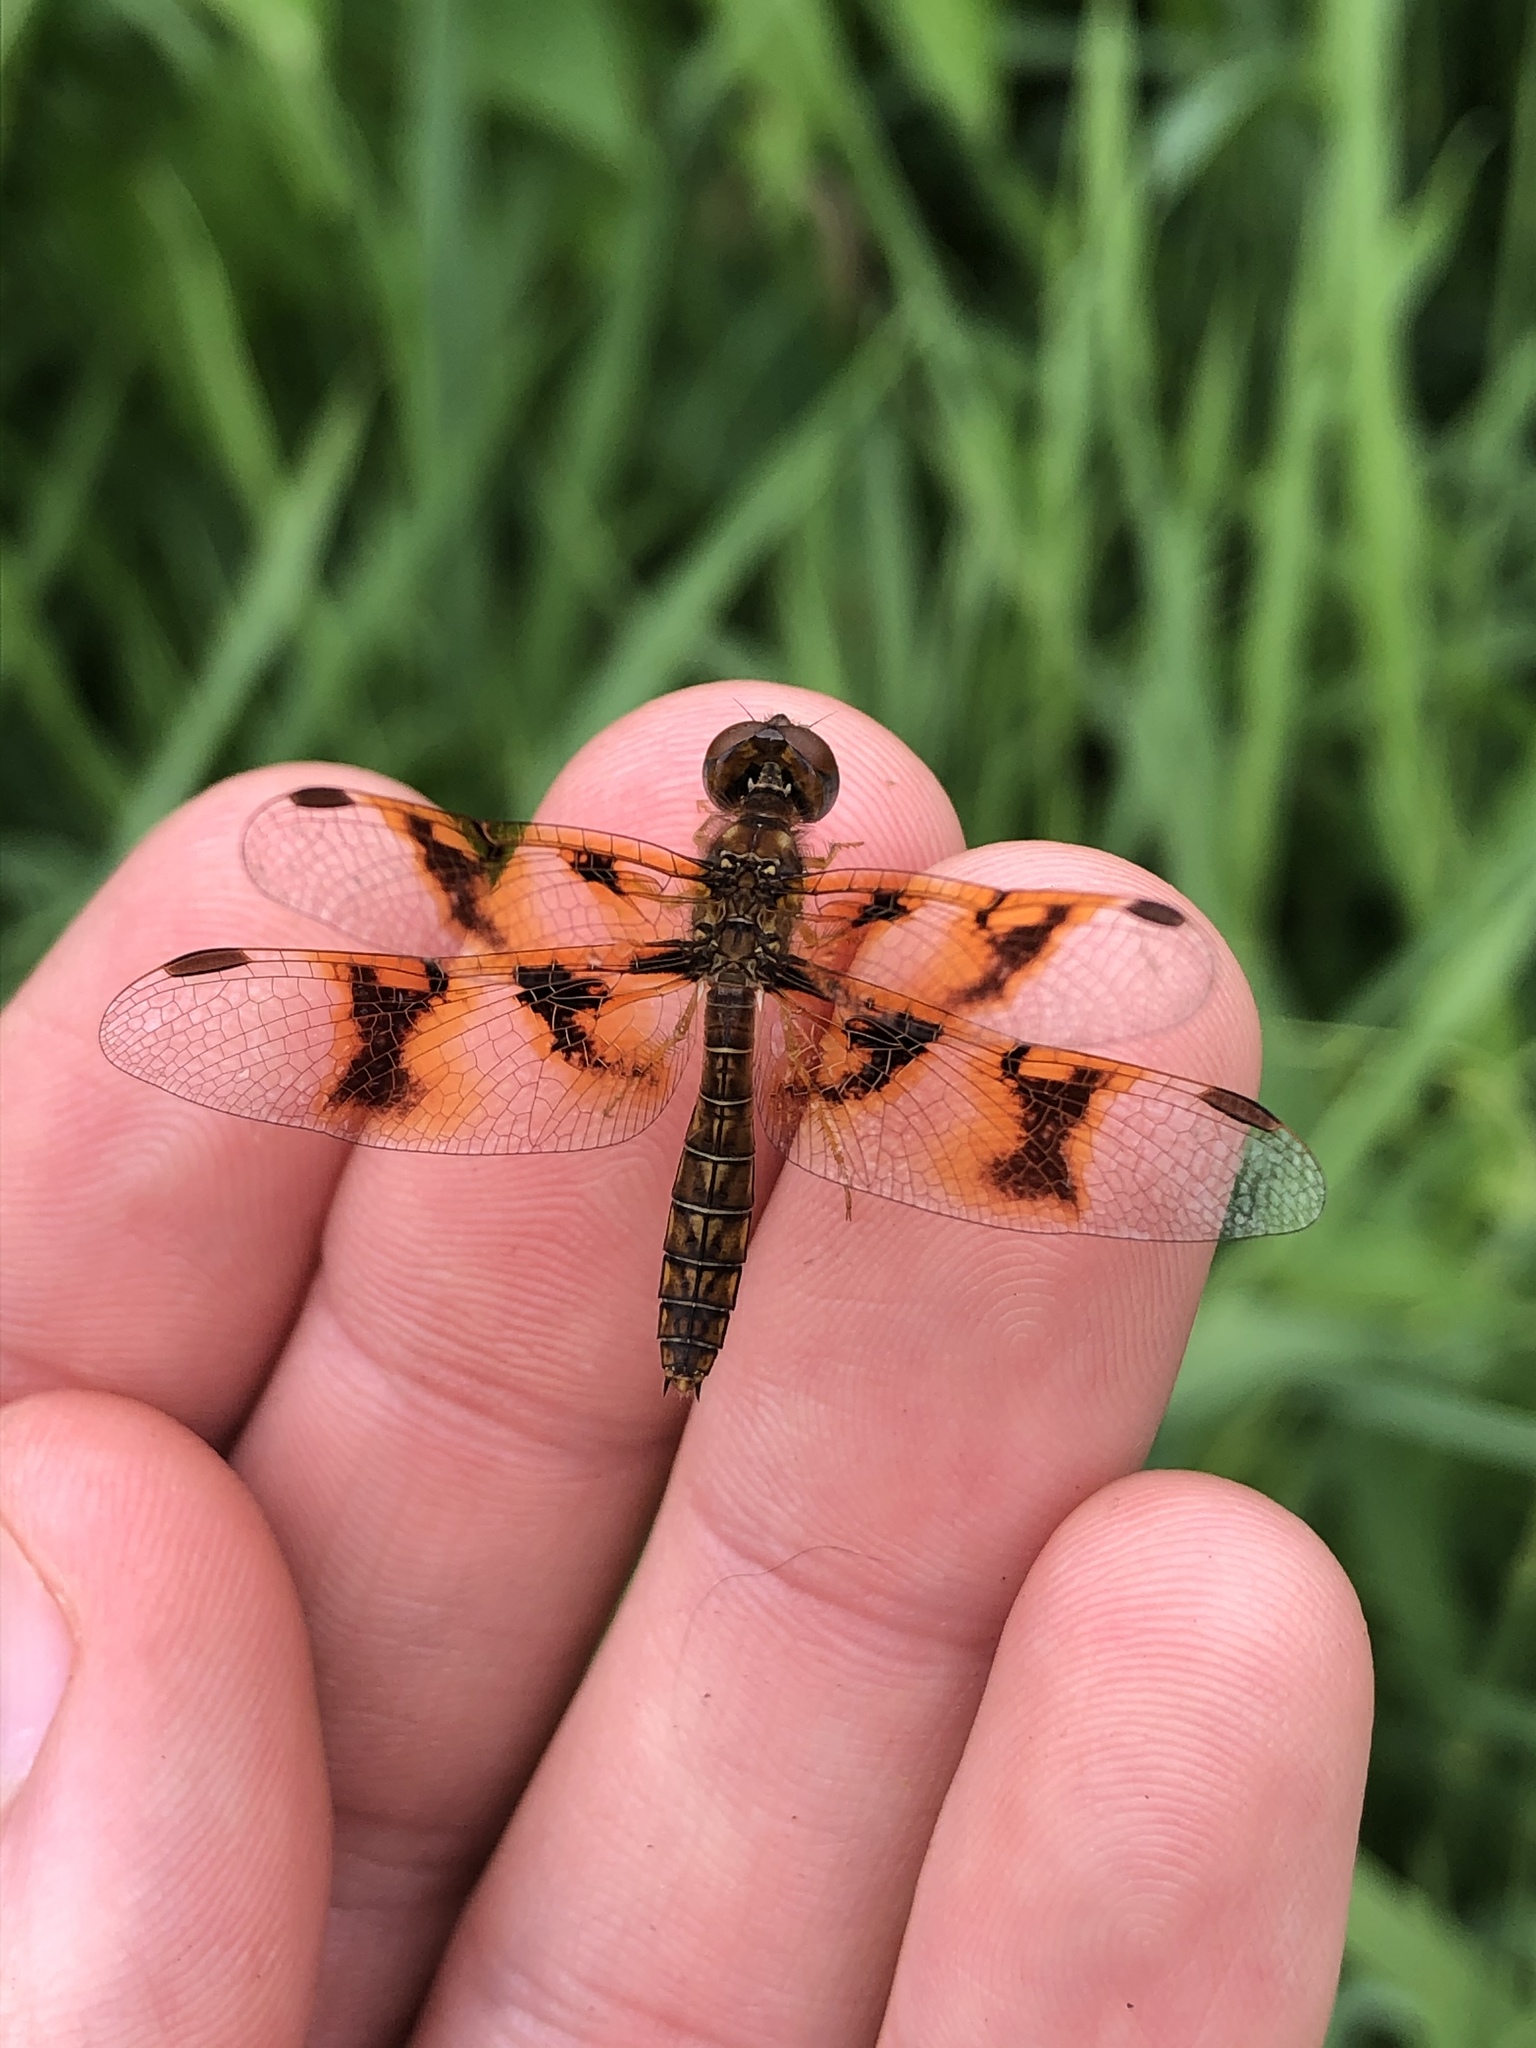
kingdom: Animalia
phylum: Arthropoda
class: Insecta
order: Odonata
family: Libellulidae
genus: Perithemis
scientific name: Perithemis tenera
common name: Eastern amberwing
